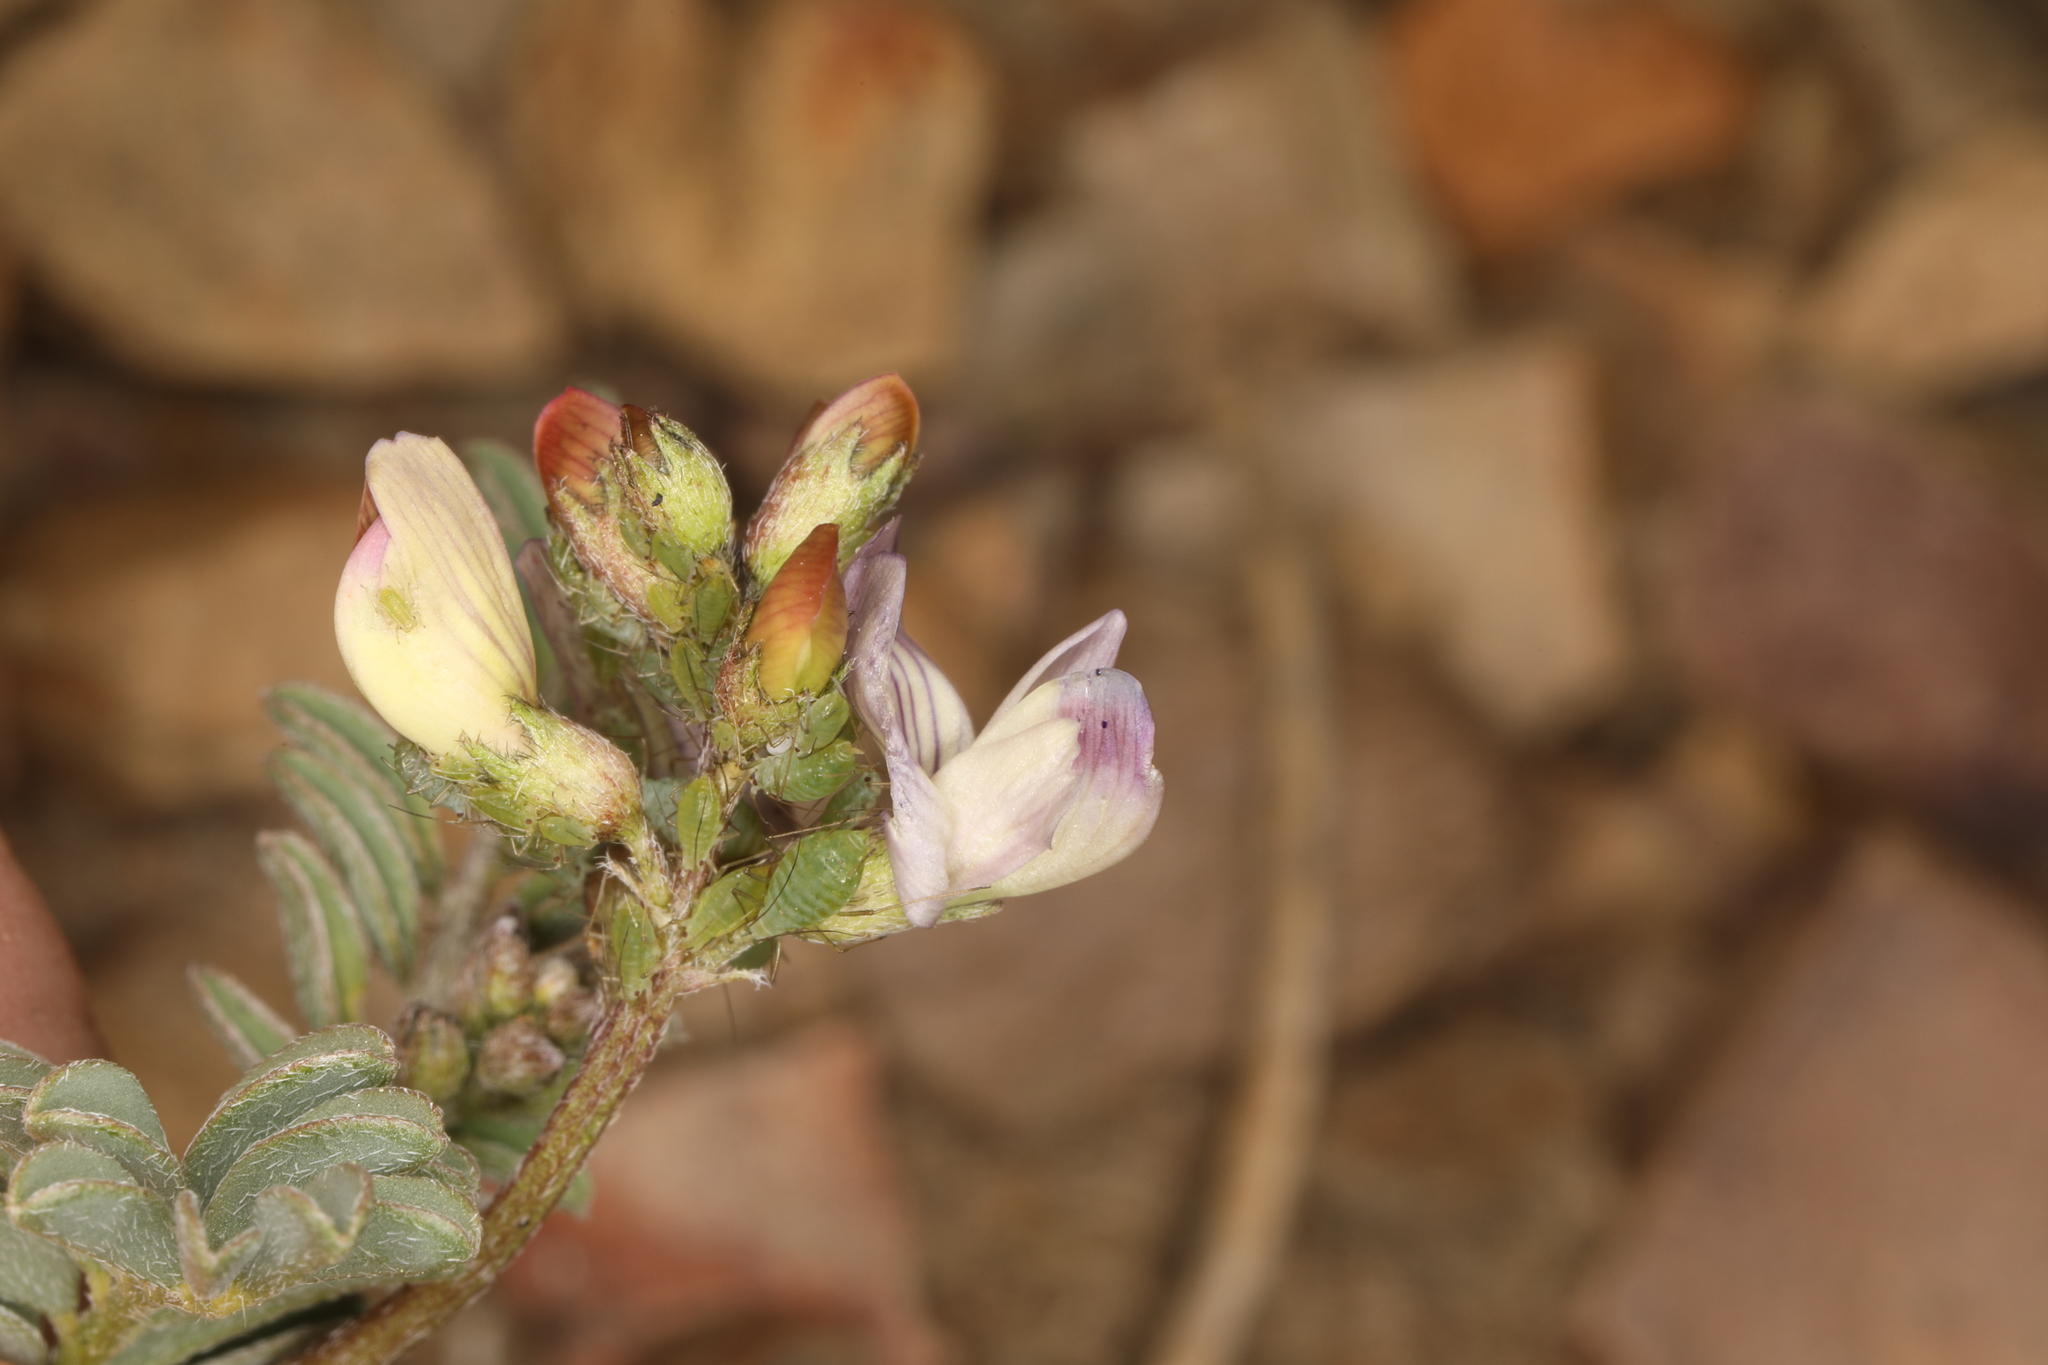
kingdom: Plantae
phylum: Tracheophyta
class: Magnoliopsida
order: Fabales
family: Fabaceae
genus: Astragalus
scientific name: Astragalus inyoensis
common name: Inyo locoweed
